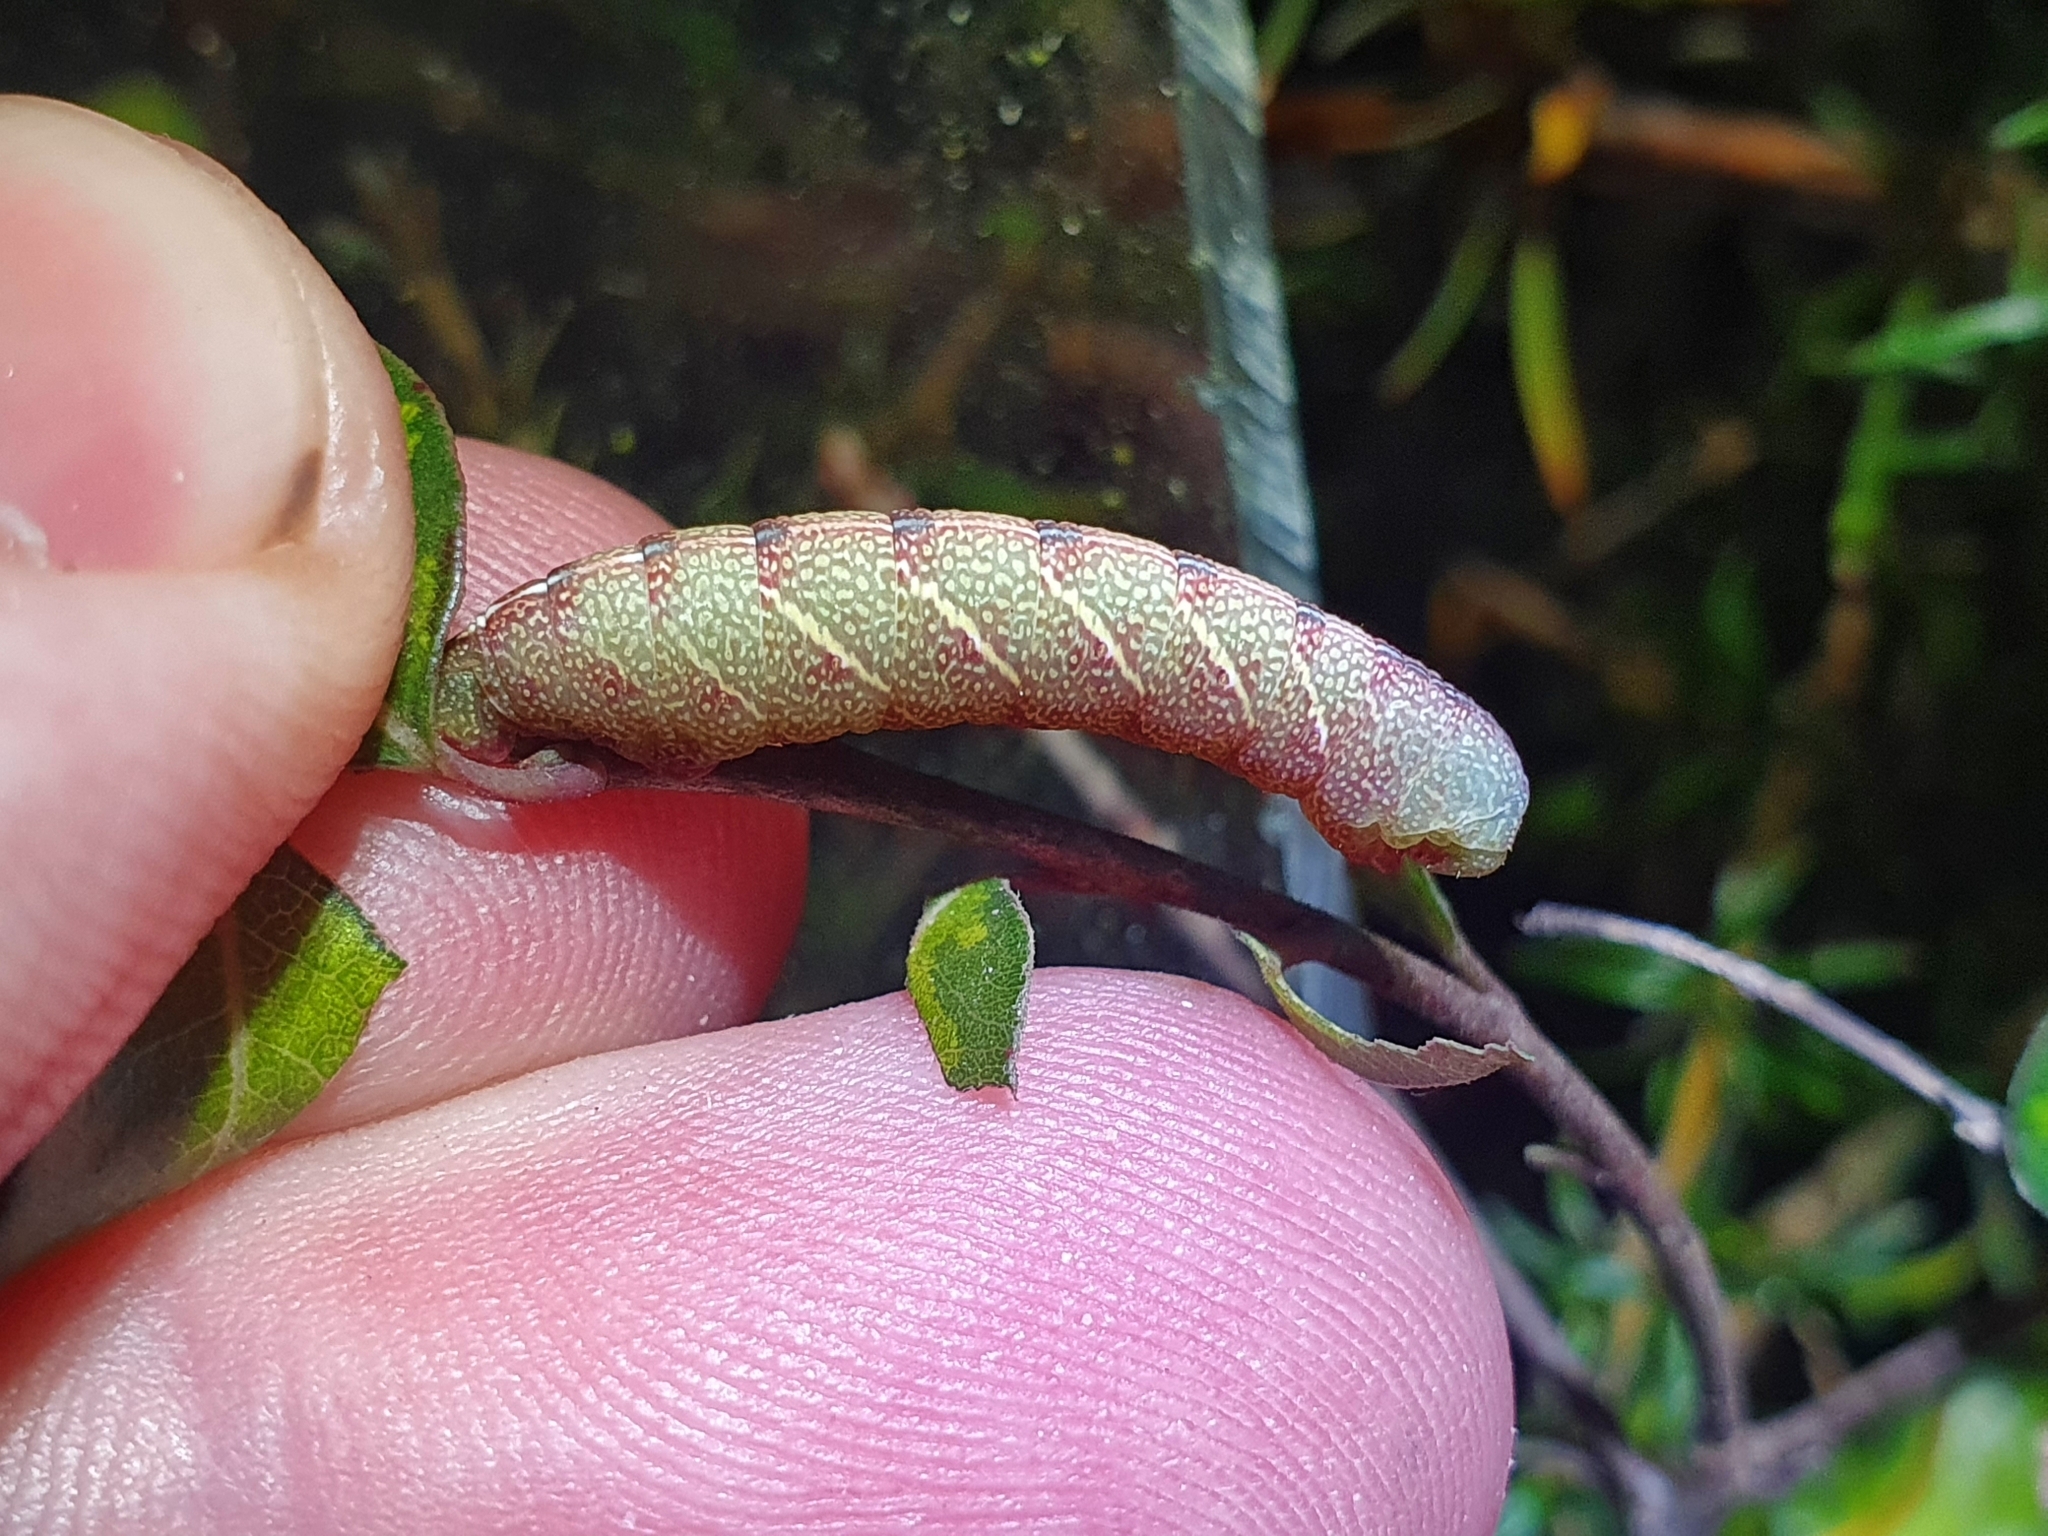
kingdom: Animalia
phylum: Arthropoda
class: Insecta
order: Lepidoptera
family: Geometridae
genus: Xyridacma
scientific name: Xyridacma ustaria
